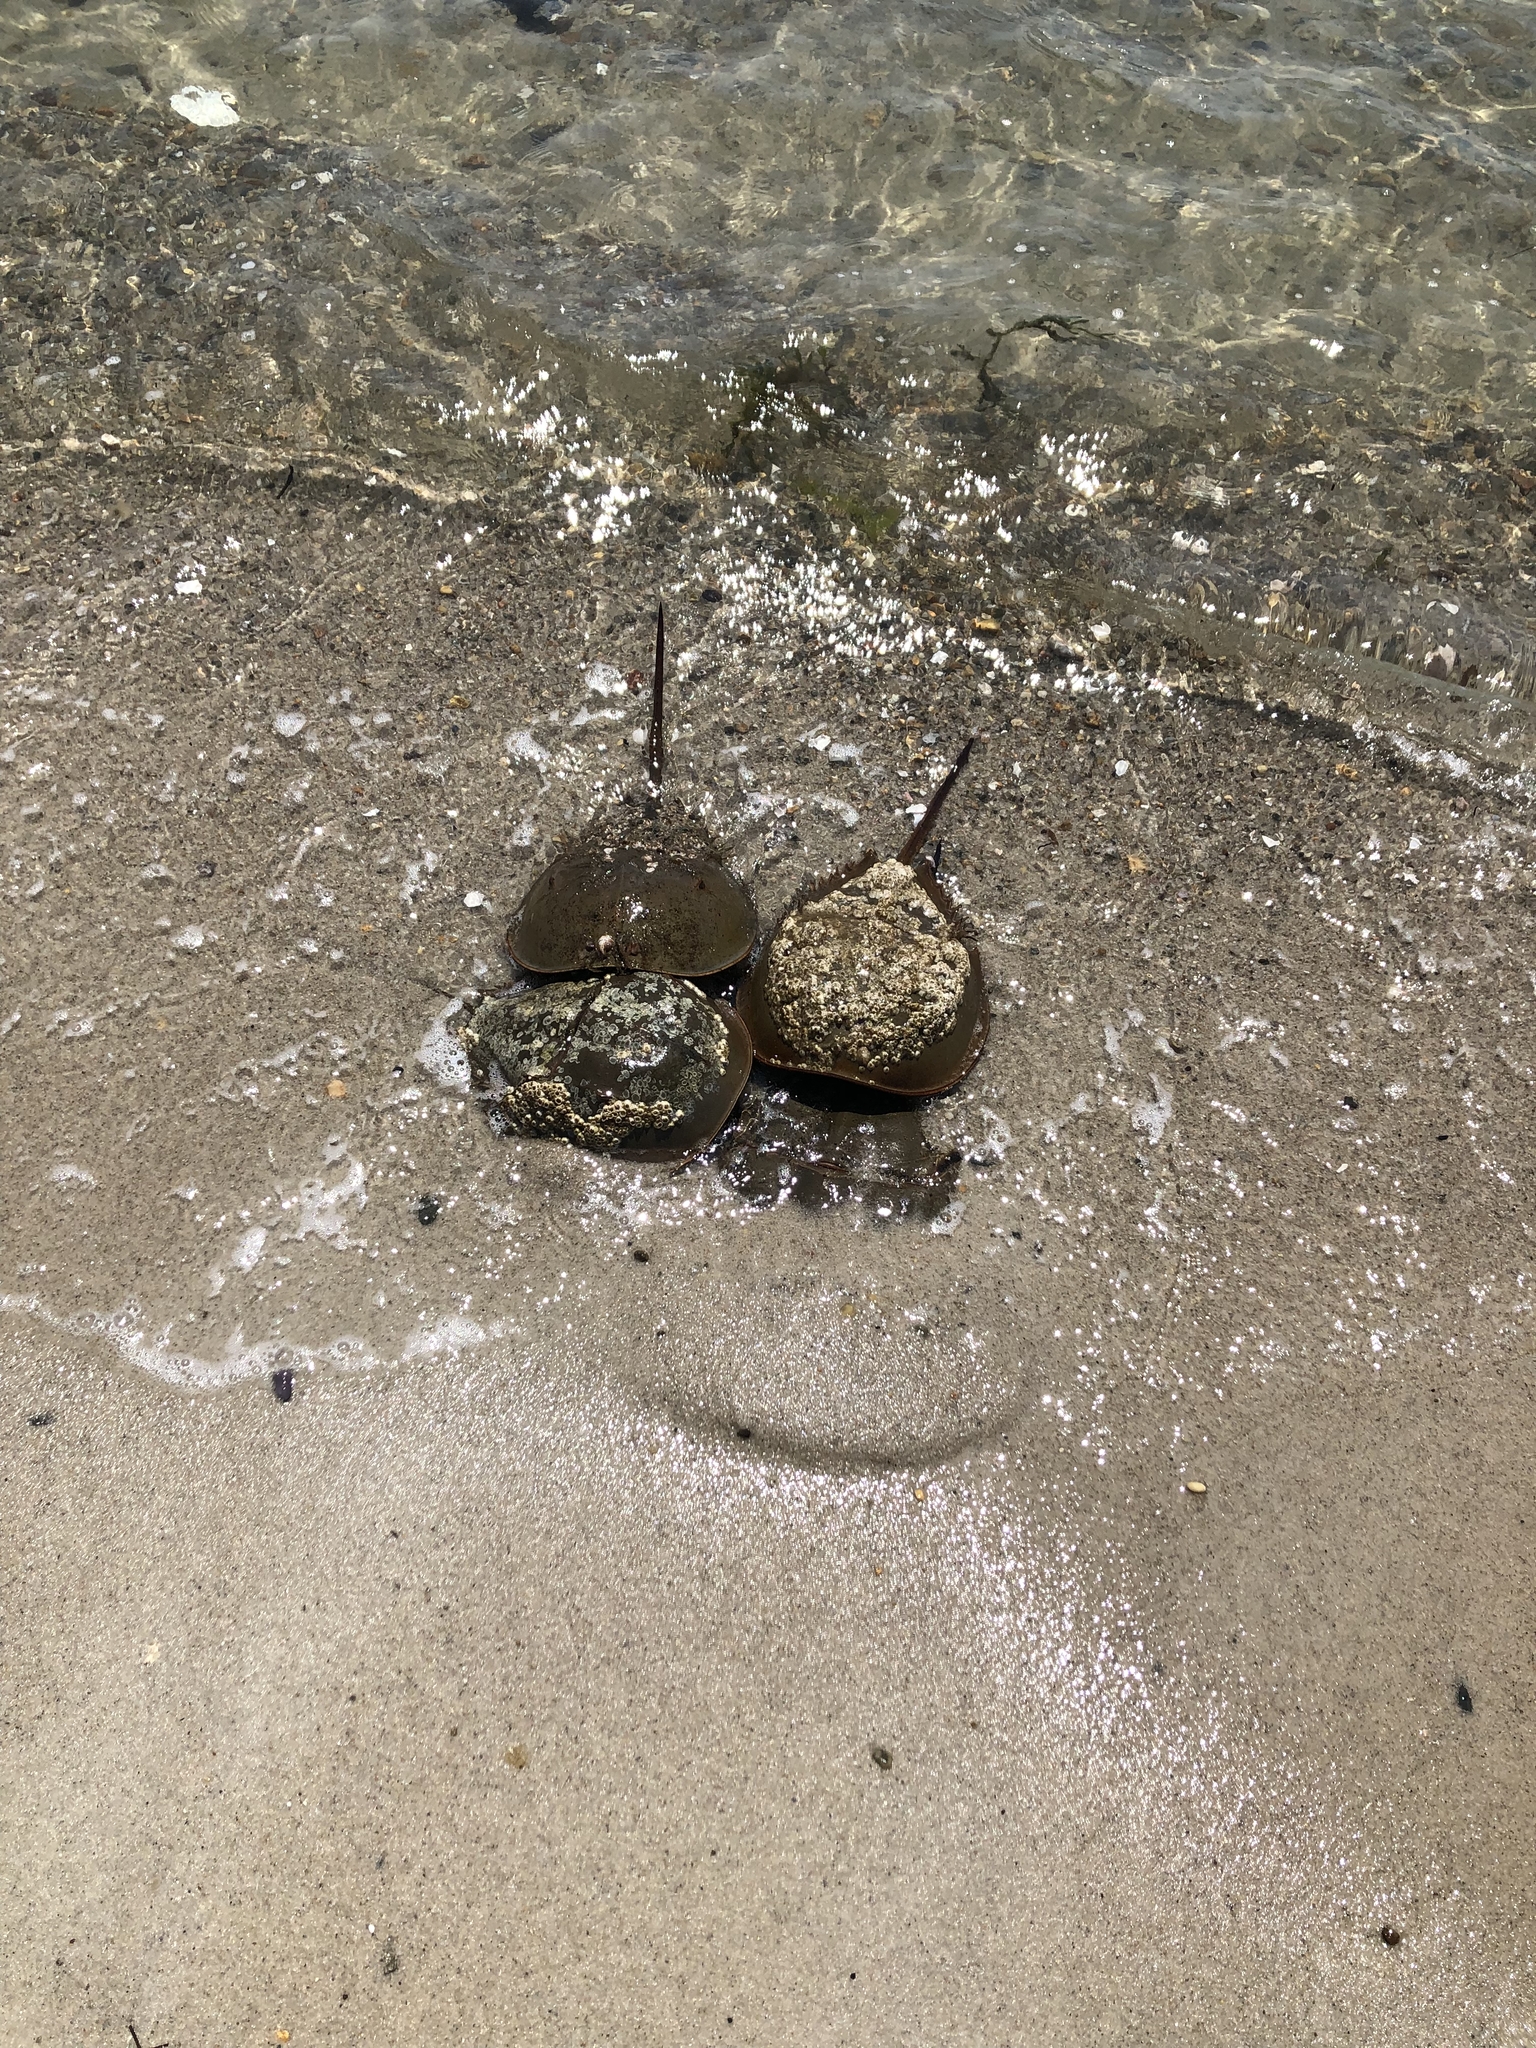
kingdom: Animalia
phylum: Arthropoda
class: Merostomata
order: Xiphosurida
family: Limulidae
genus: Limulus
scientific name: Limulus polyphemus
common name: Horseshoe crab
